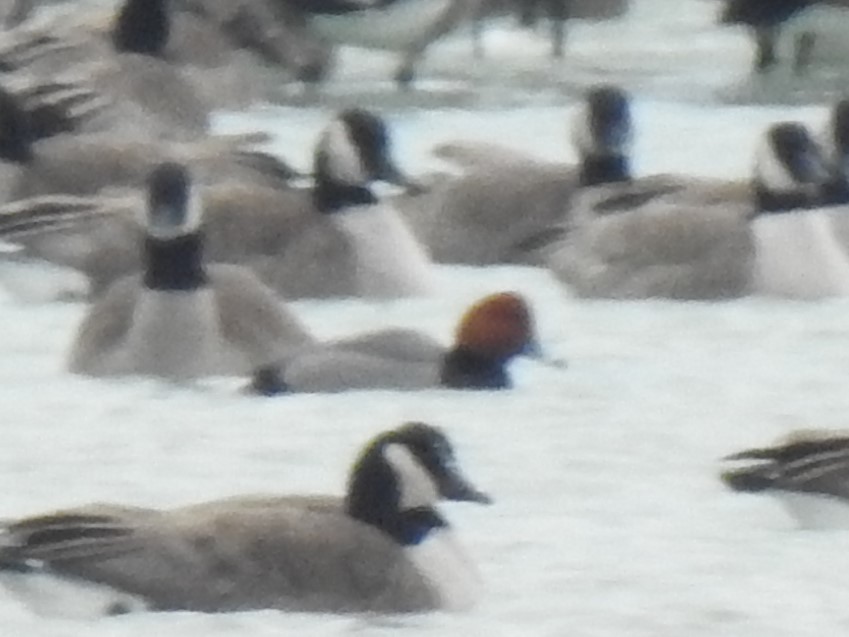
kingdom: Animalia
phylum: Chordata
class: Aves
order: Anseriformes
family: Anatidae
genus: Aythya
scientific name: Aythya americana
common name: Redhead
